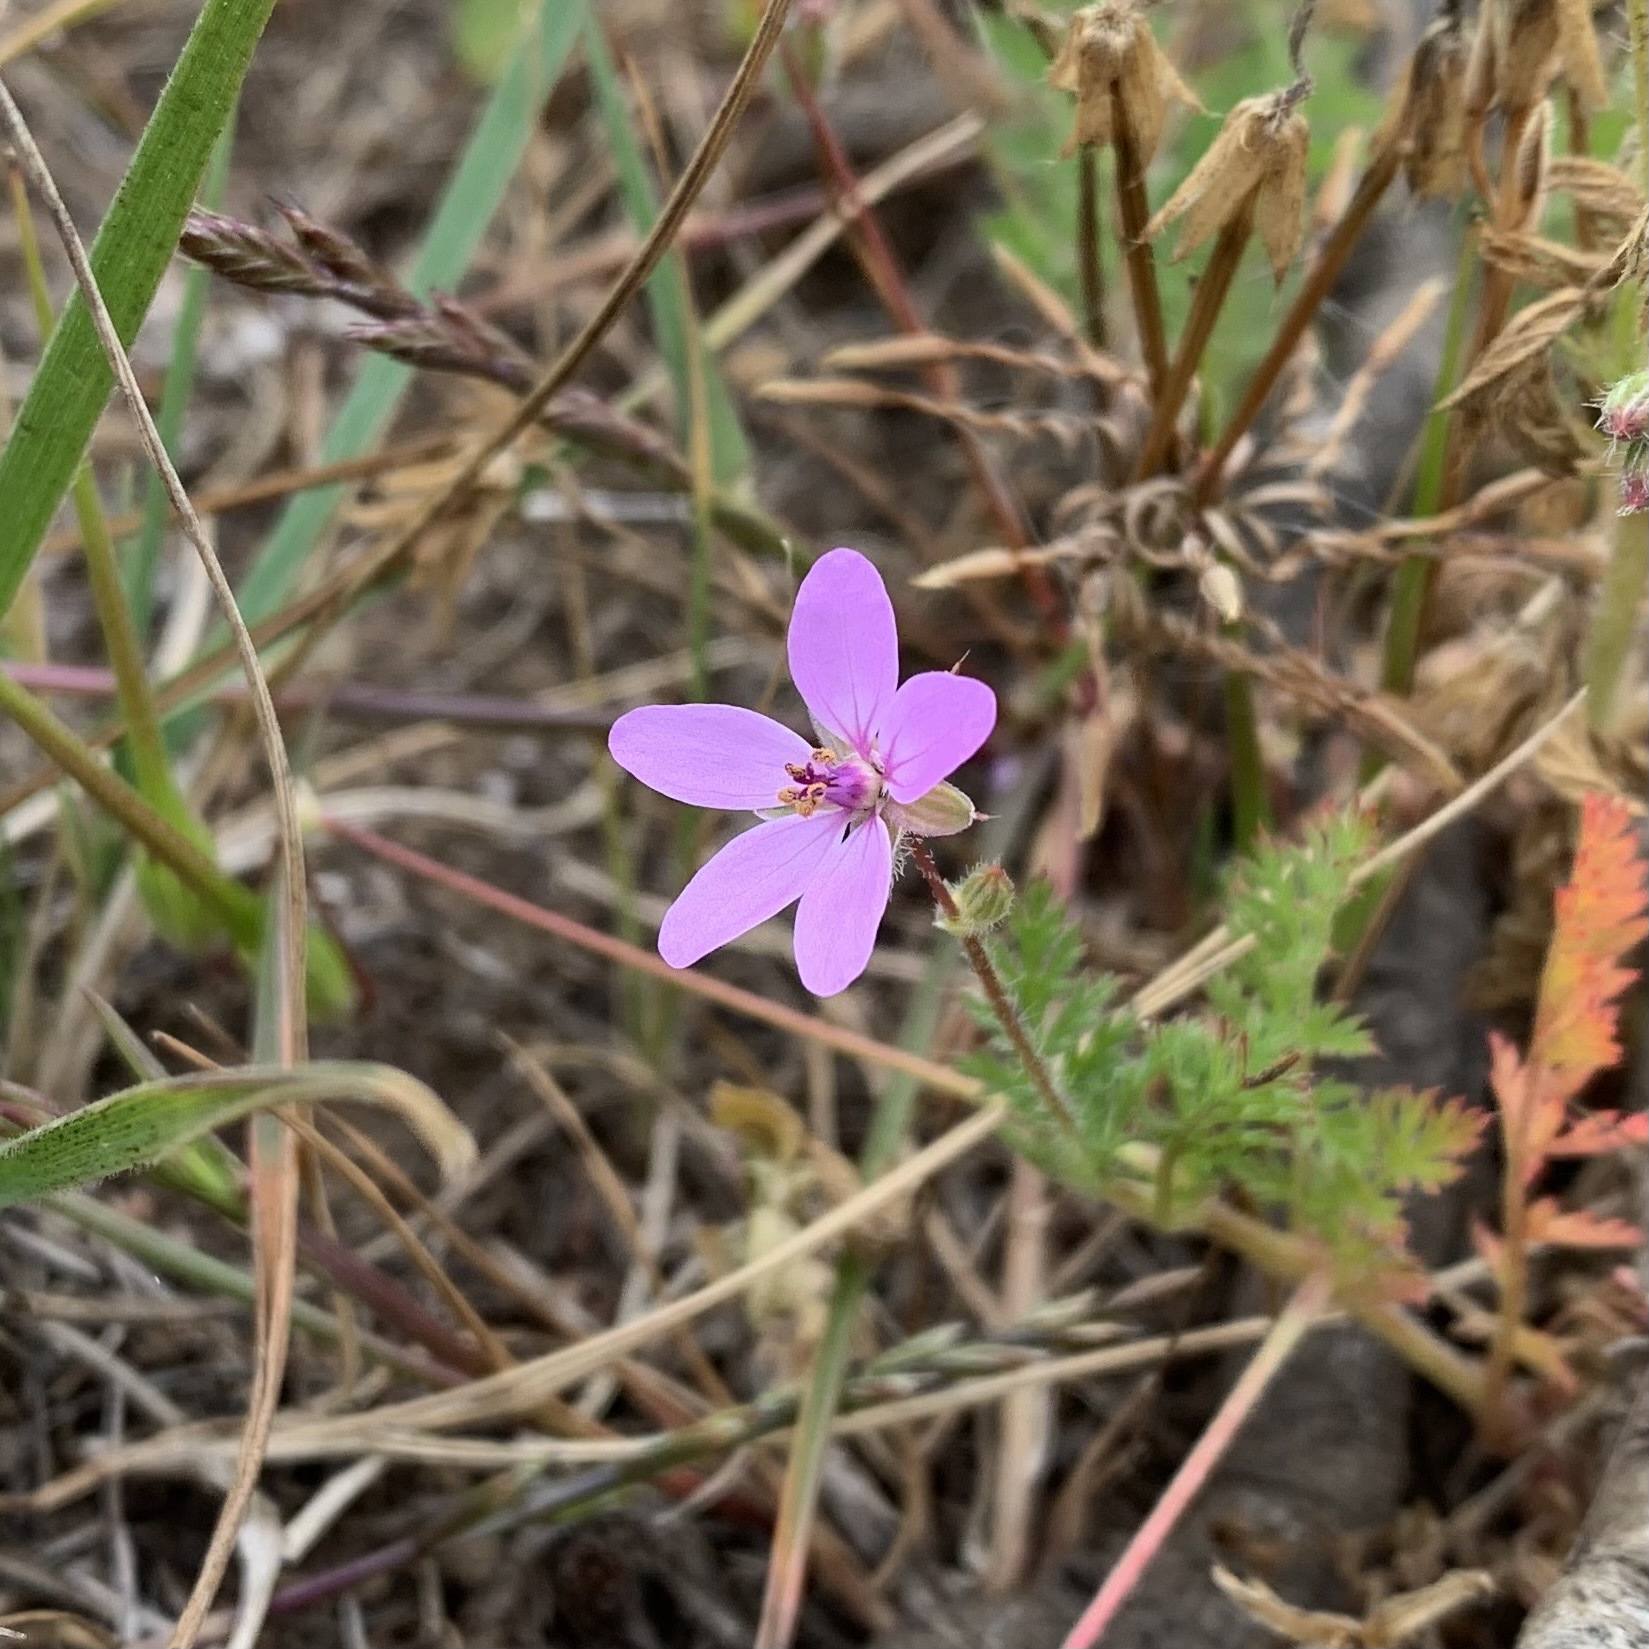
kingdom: Plantae
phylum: Tracheophyta
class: Magnoliopsida
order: Geraniales
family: Geraniaceae
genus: Erodium
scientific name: Erodium cicutarium
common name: Common stork's-bill
